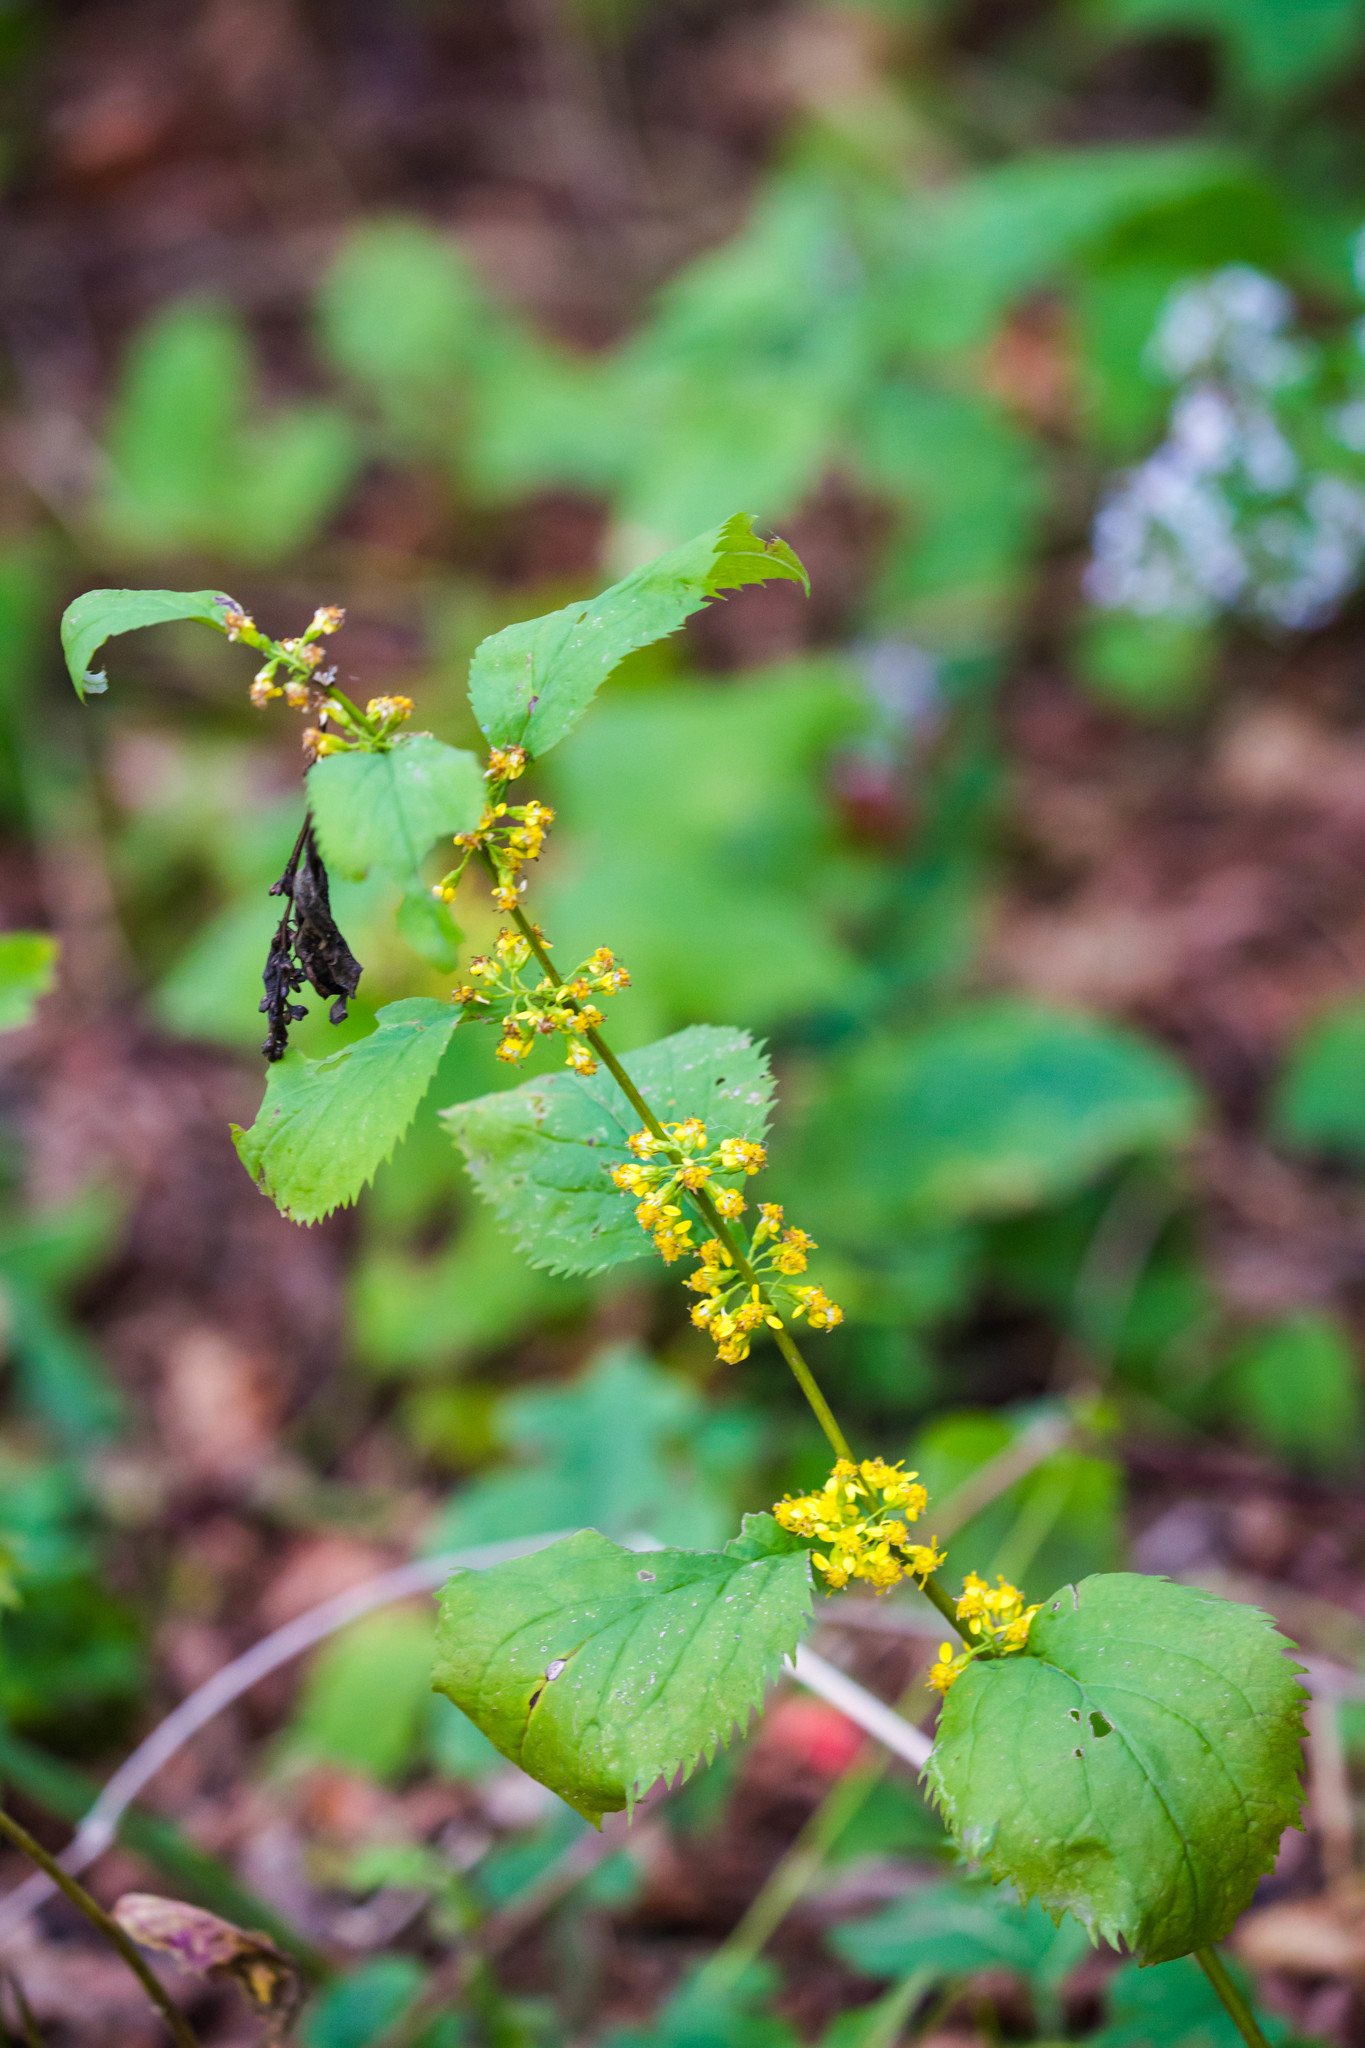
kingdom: Plantae
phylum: Tracheophyta
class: Magnoliopsida
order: Asterales
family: Asteraceae
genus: Solidago
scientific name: Solidago flexicaulis
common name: Zig-zag goldenrod
